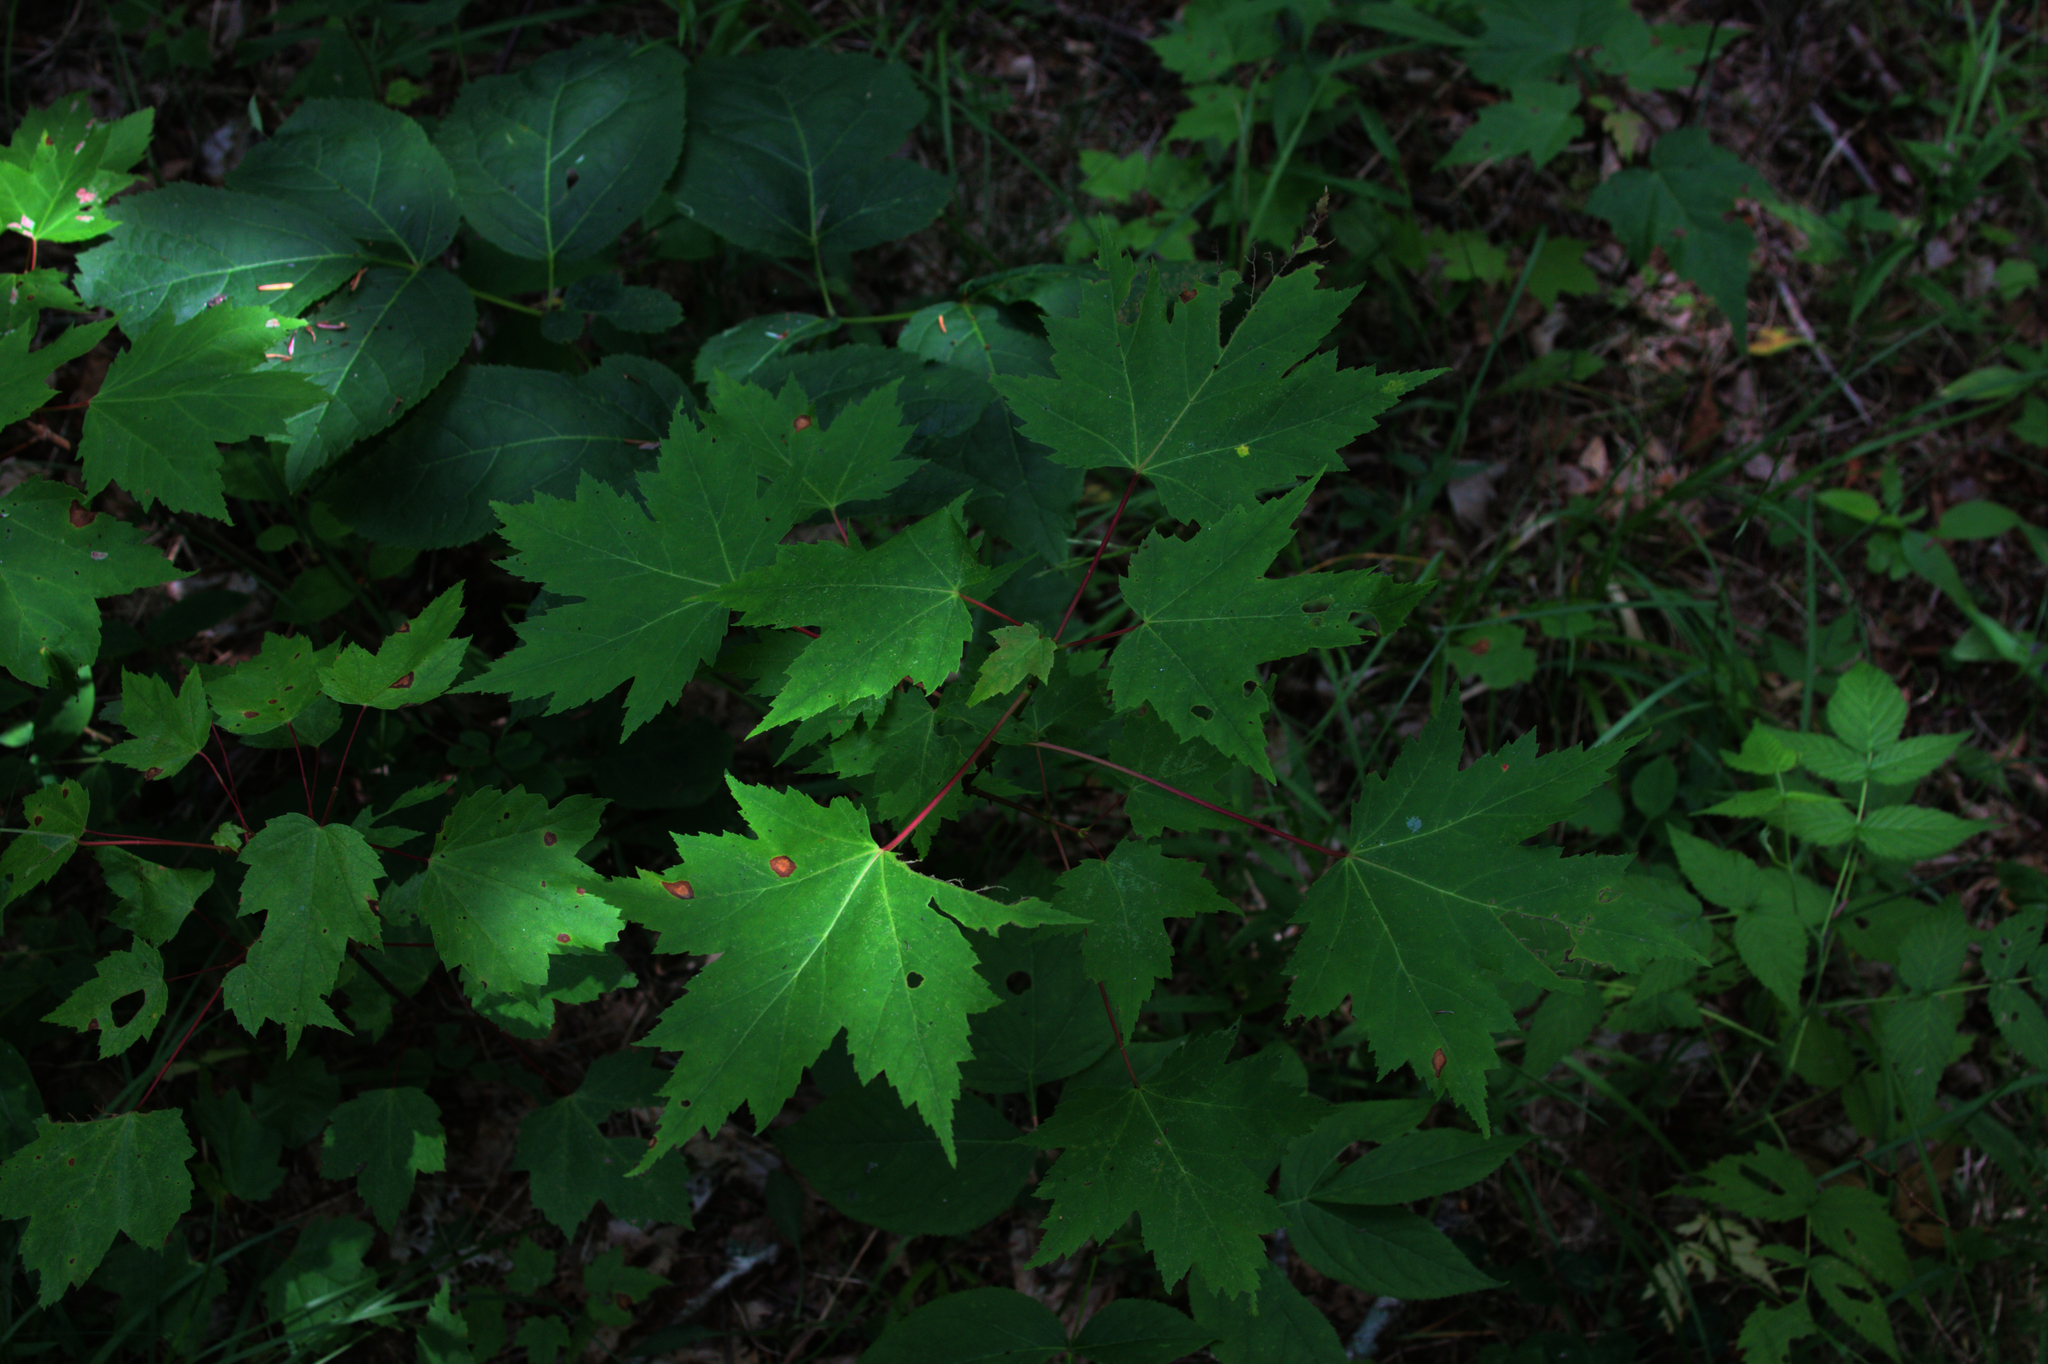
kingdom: Plantae
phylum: Tracheophyta
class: Magnoliopsida
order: Sapindales
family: Sapindaceae
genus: Acer
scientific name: Acer rubrum
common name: Red maple
